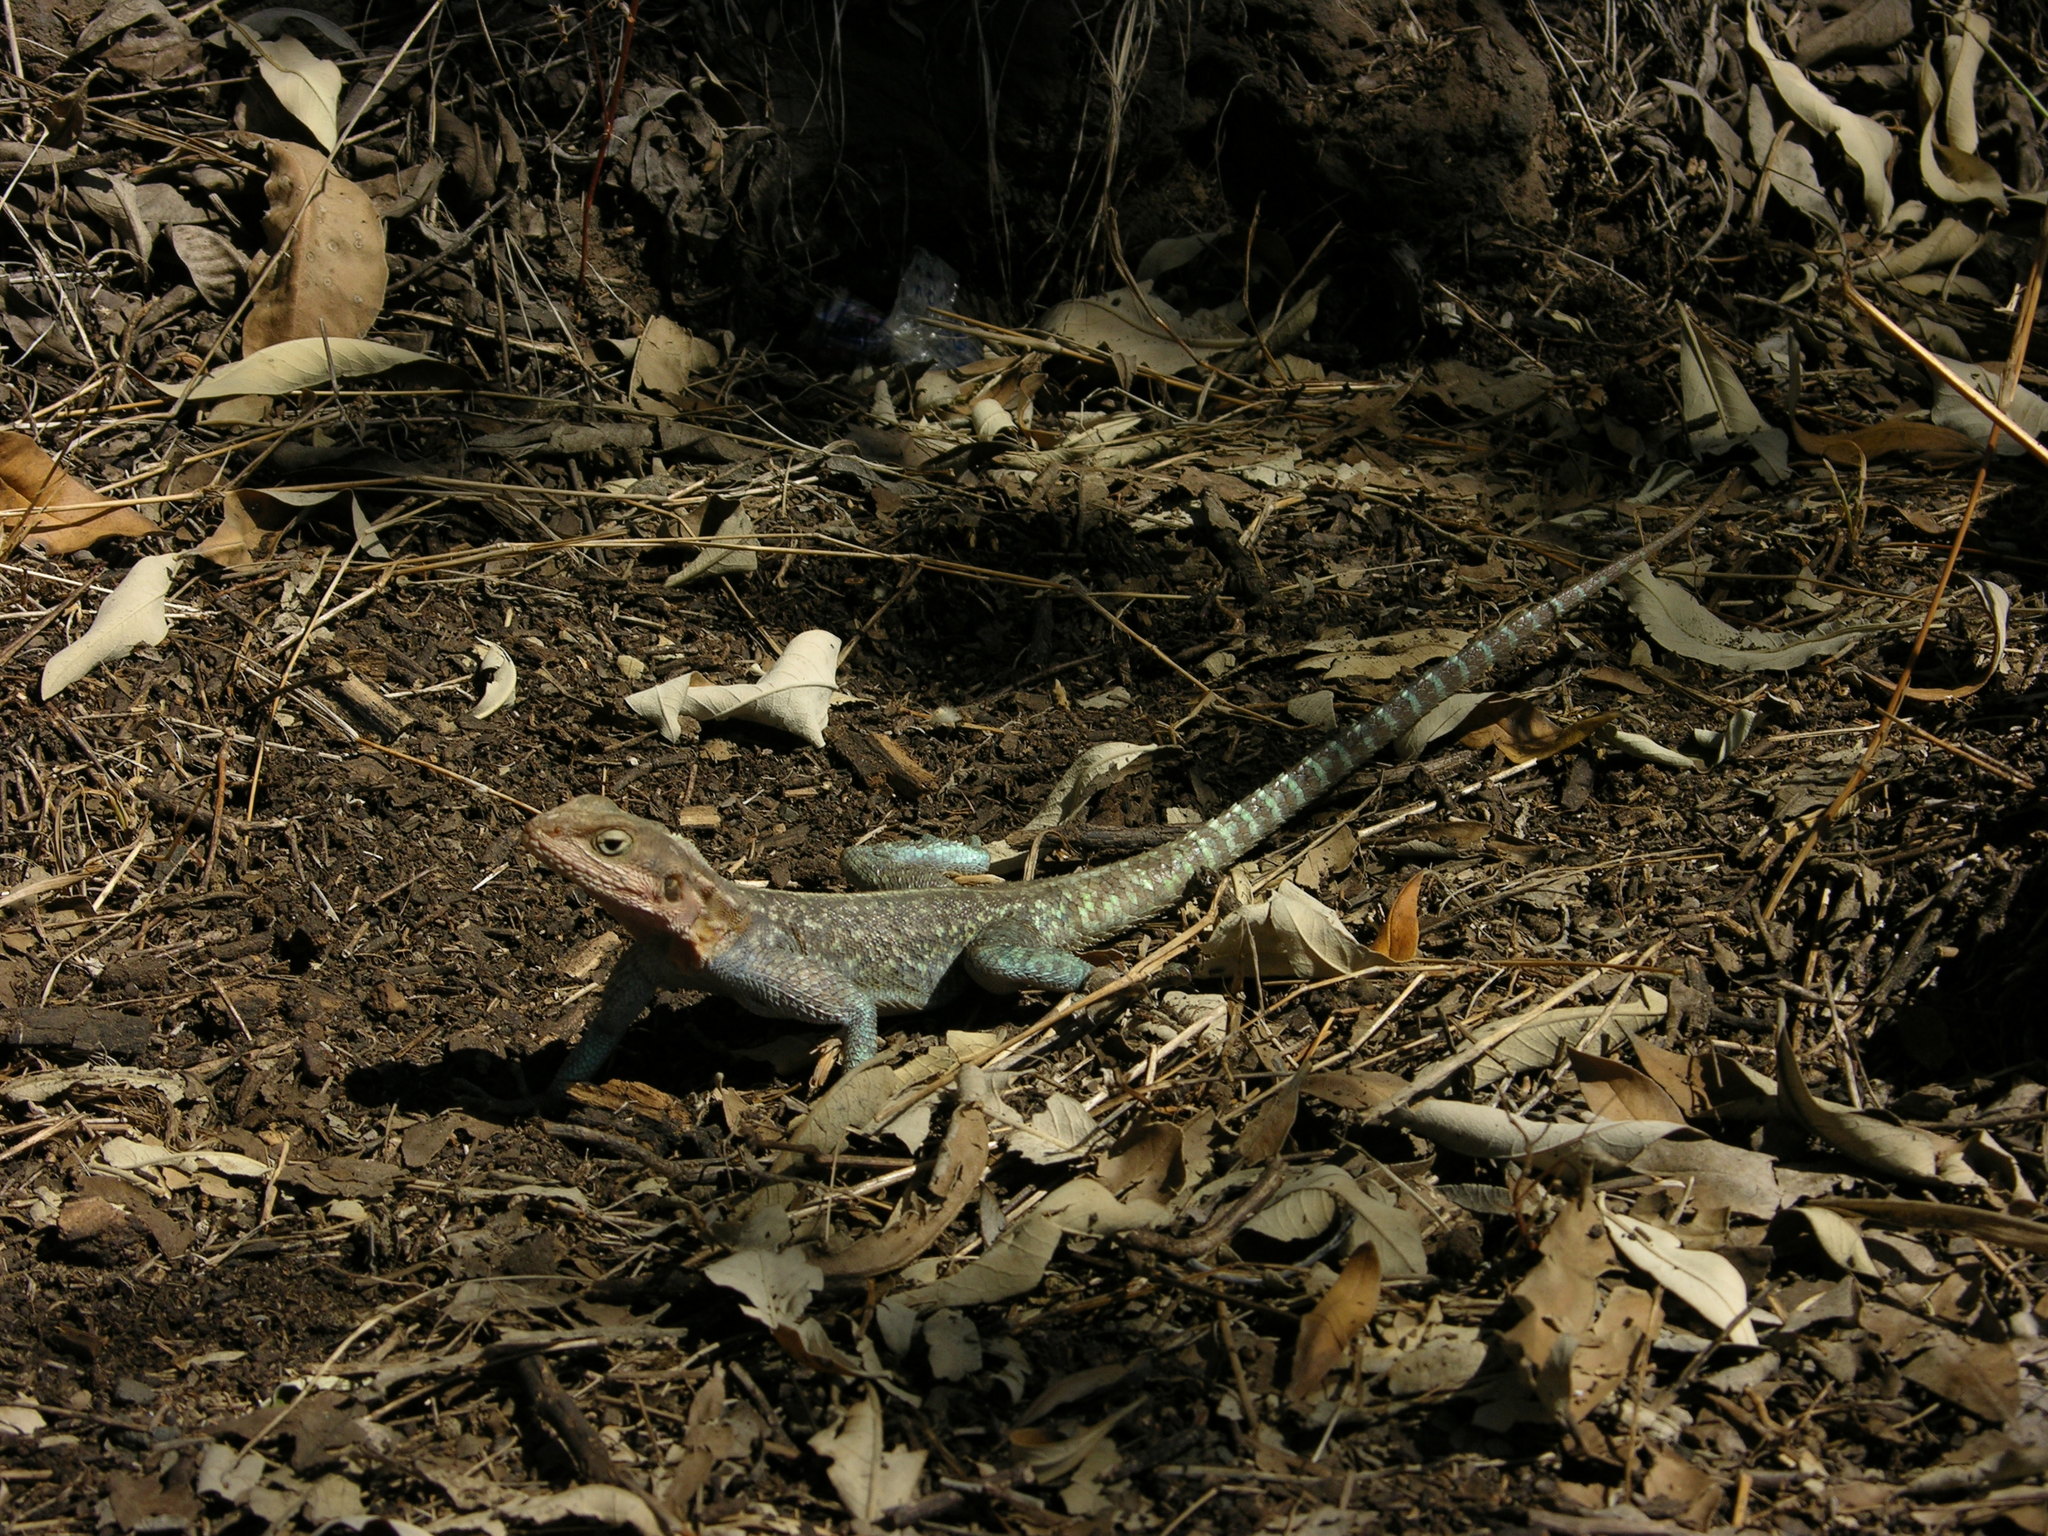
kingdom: Animalia
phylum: Chordata
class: Squamata
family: Agamidae
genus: Agama
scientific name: Agama lionotus
